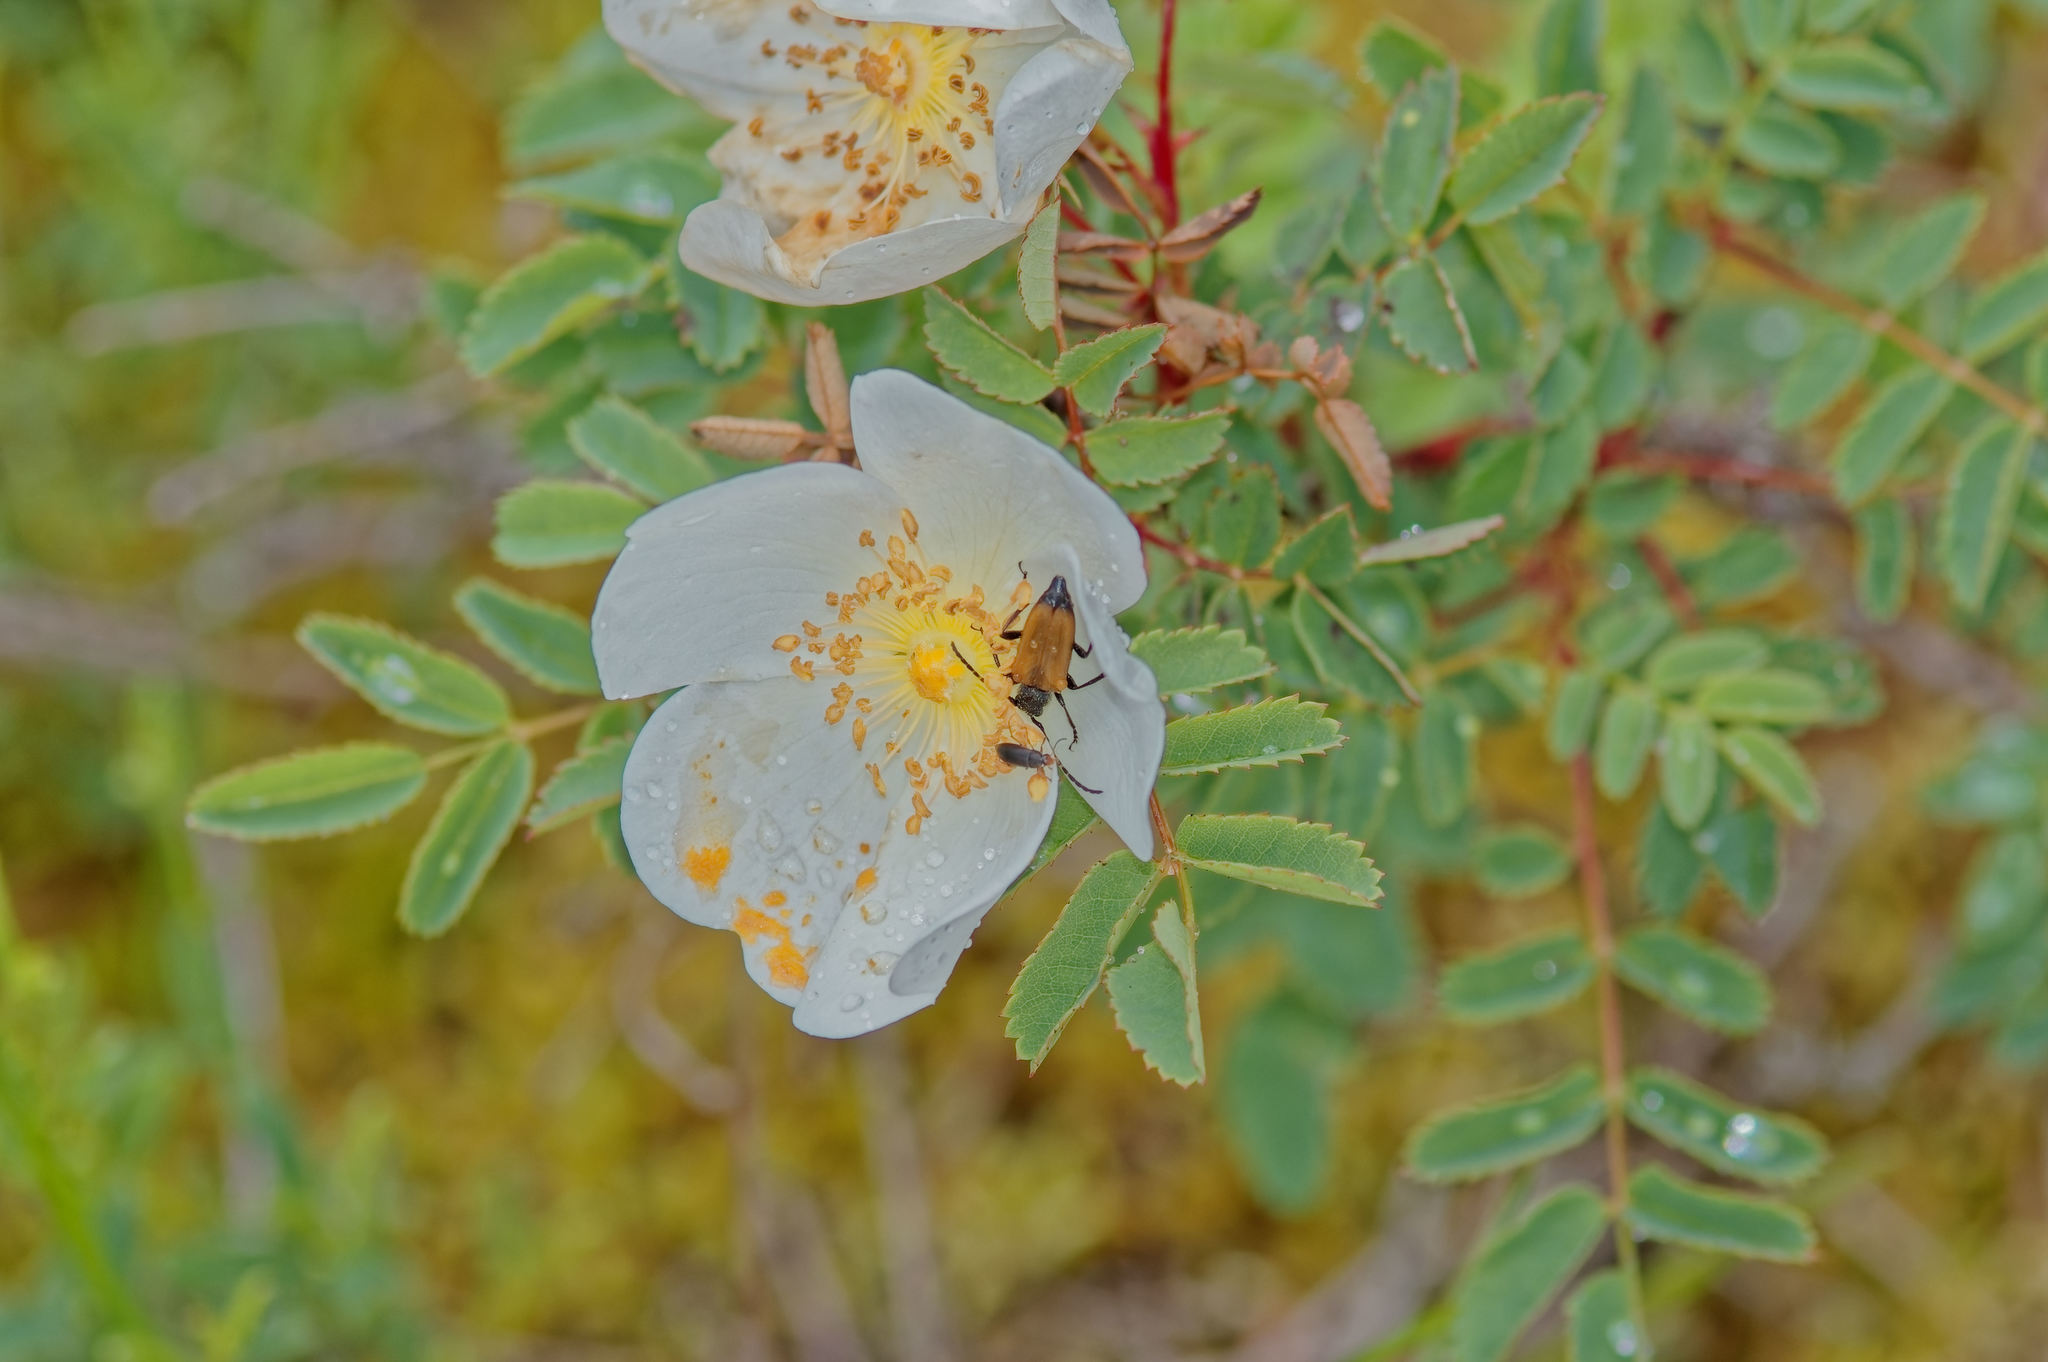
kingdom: Animalia
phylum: Arthropoda
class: Insecta
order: Coleoptera
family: Cerambycidae
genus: Paracorymbia
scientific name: Paracorymbia fulva
